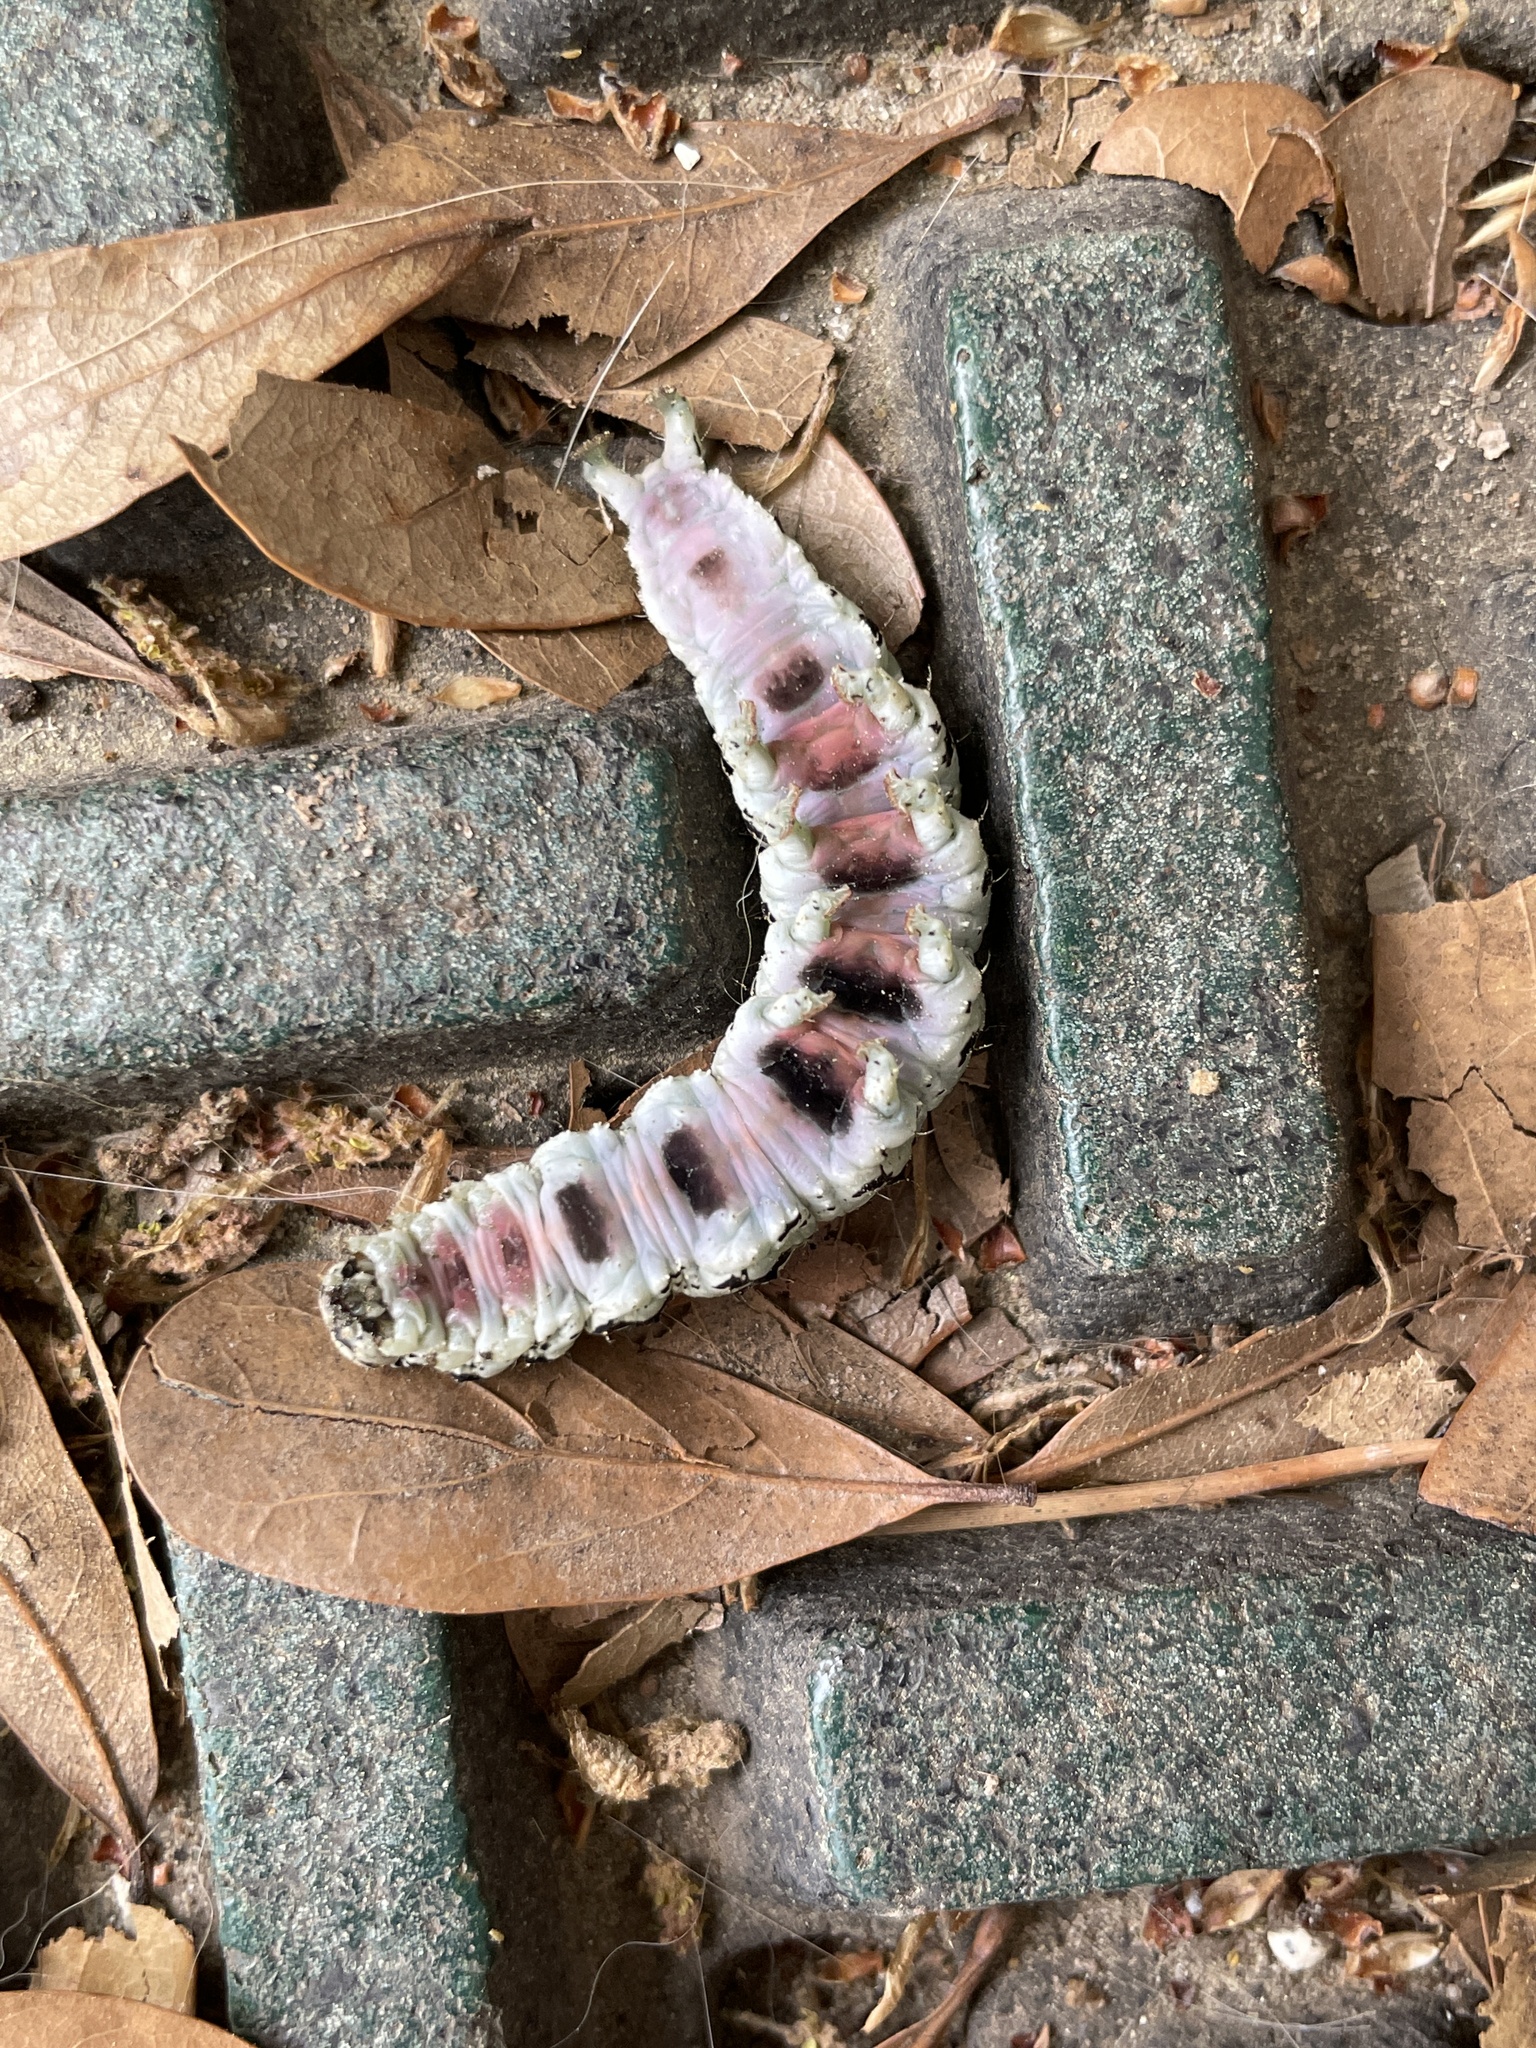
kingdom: Animalia
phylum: Arthropoda
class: Insecta
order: Lepidoptera
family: Erebidae
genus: Catocala
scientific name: Catocala ilia
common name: Ilia underwing
